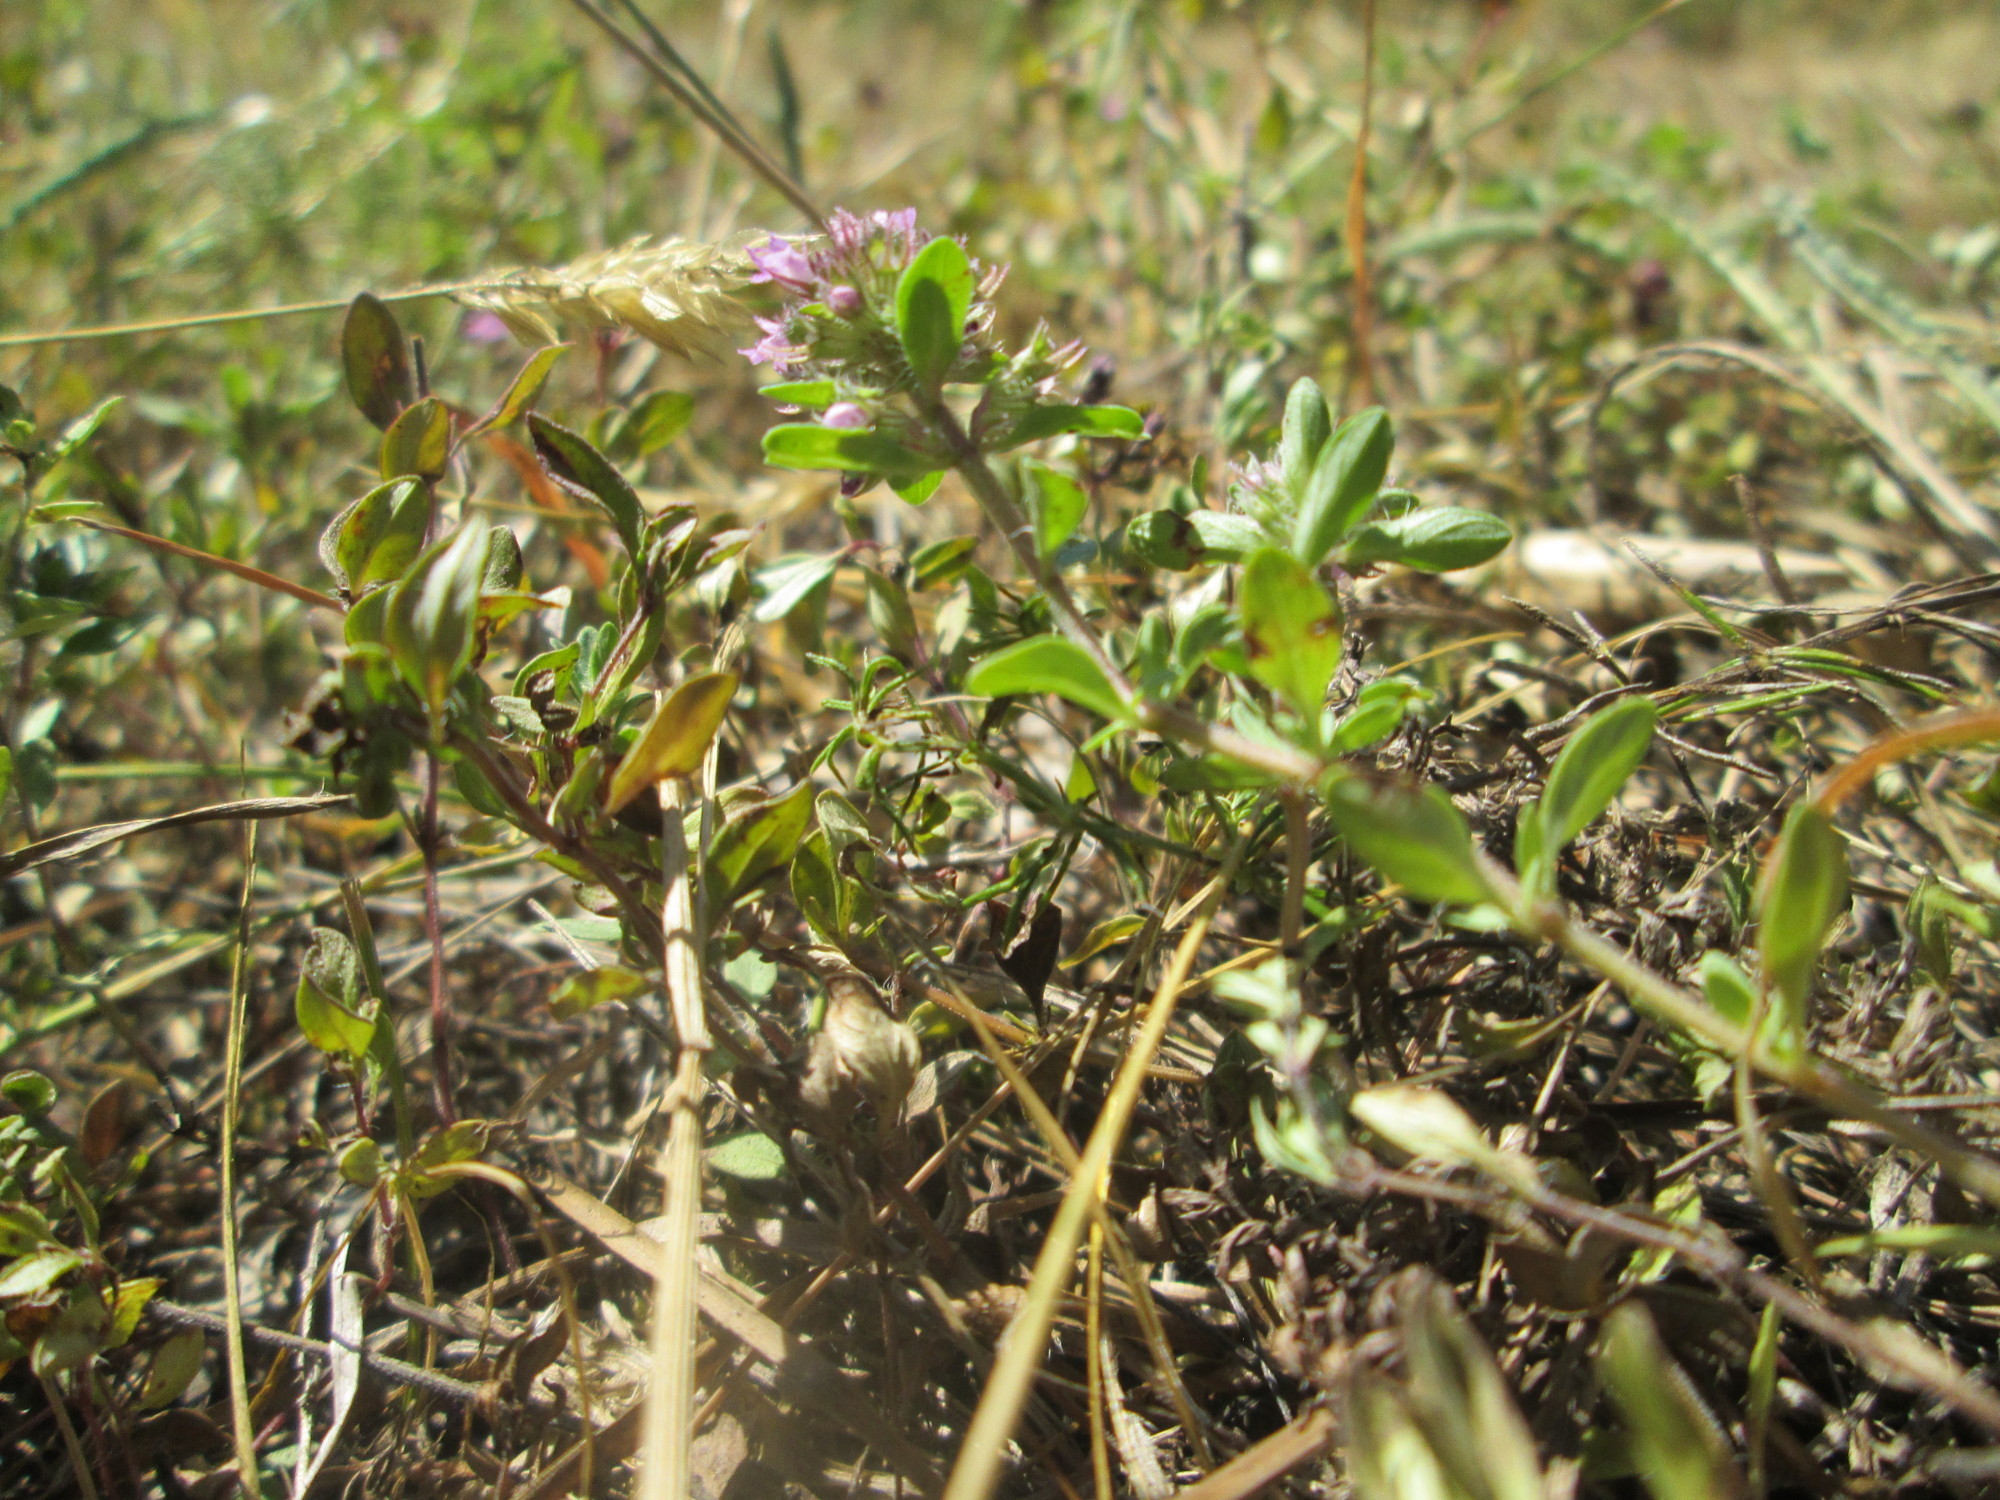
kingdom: Plantae
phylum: Tracheophyta
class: Magnoliopsida
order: Lamiales
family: Lamiaceae
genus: Thymus
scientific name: Thymus pulegioides
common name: Large thyme
